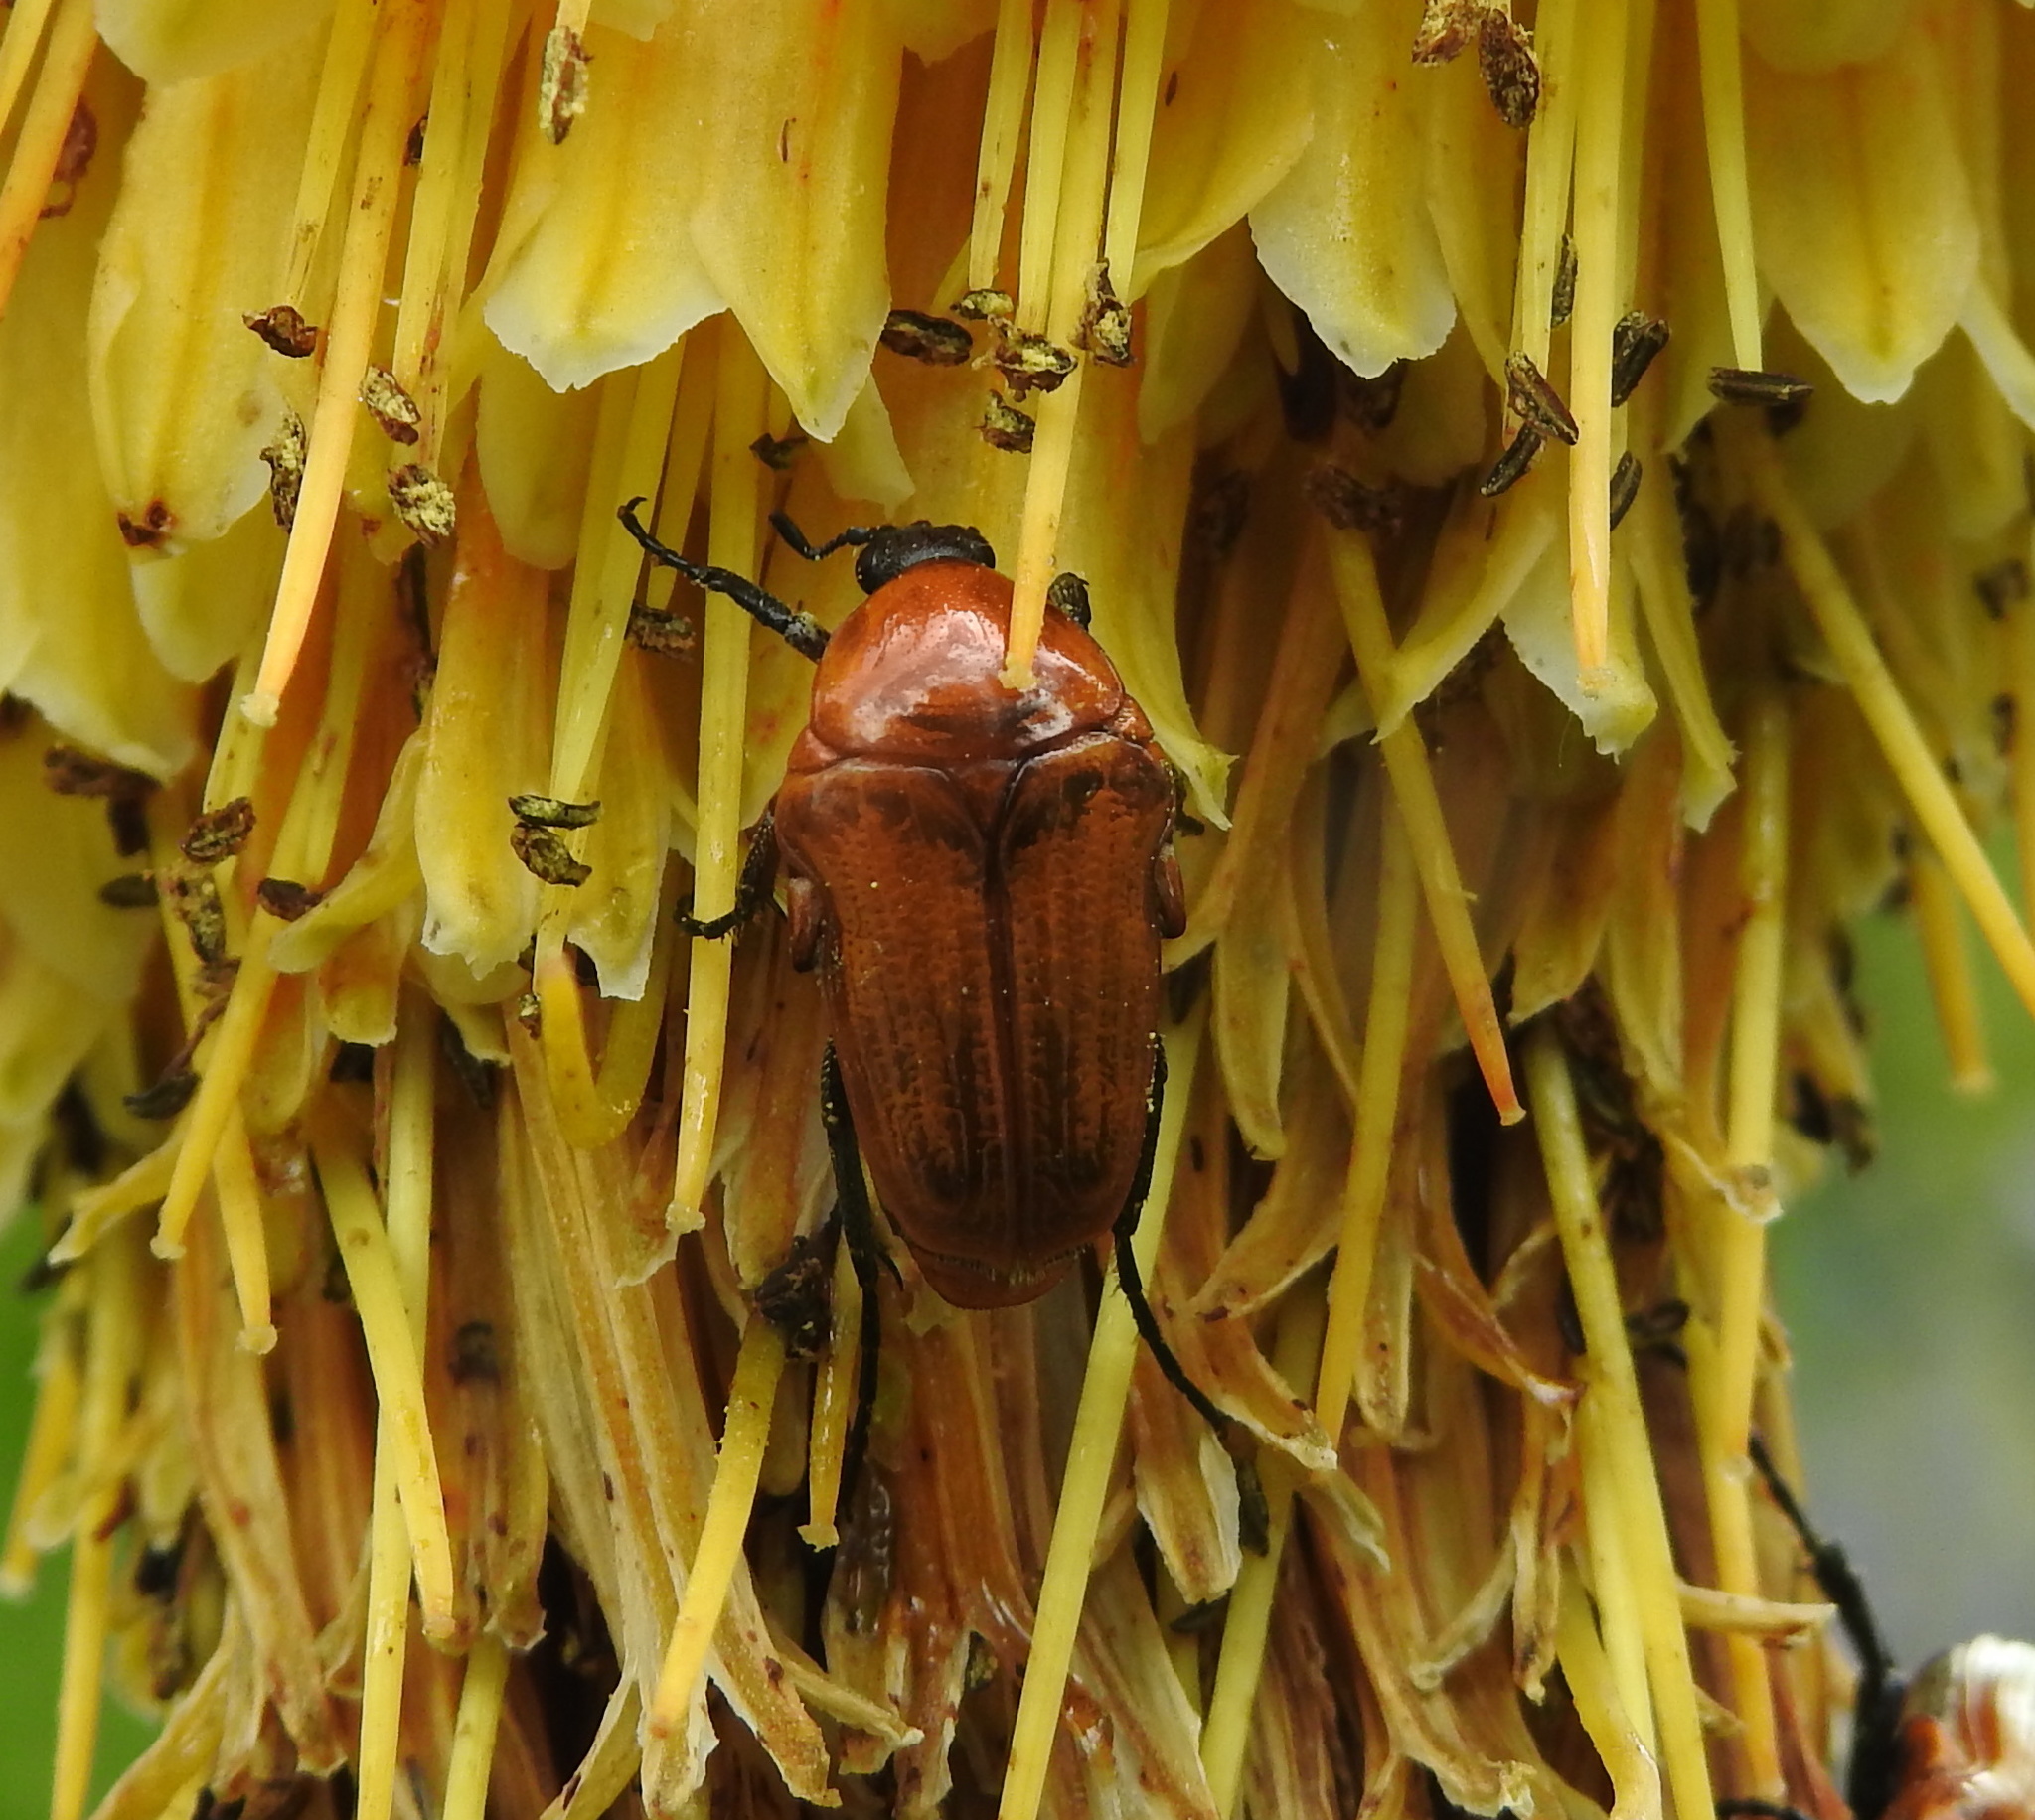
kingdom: Animalia
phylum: Arthropoda
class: Insecta
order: Coleoptera
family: Scarabaeidae
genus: Leucocelis
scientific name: Leucocelis rubra
